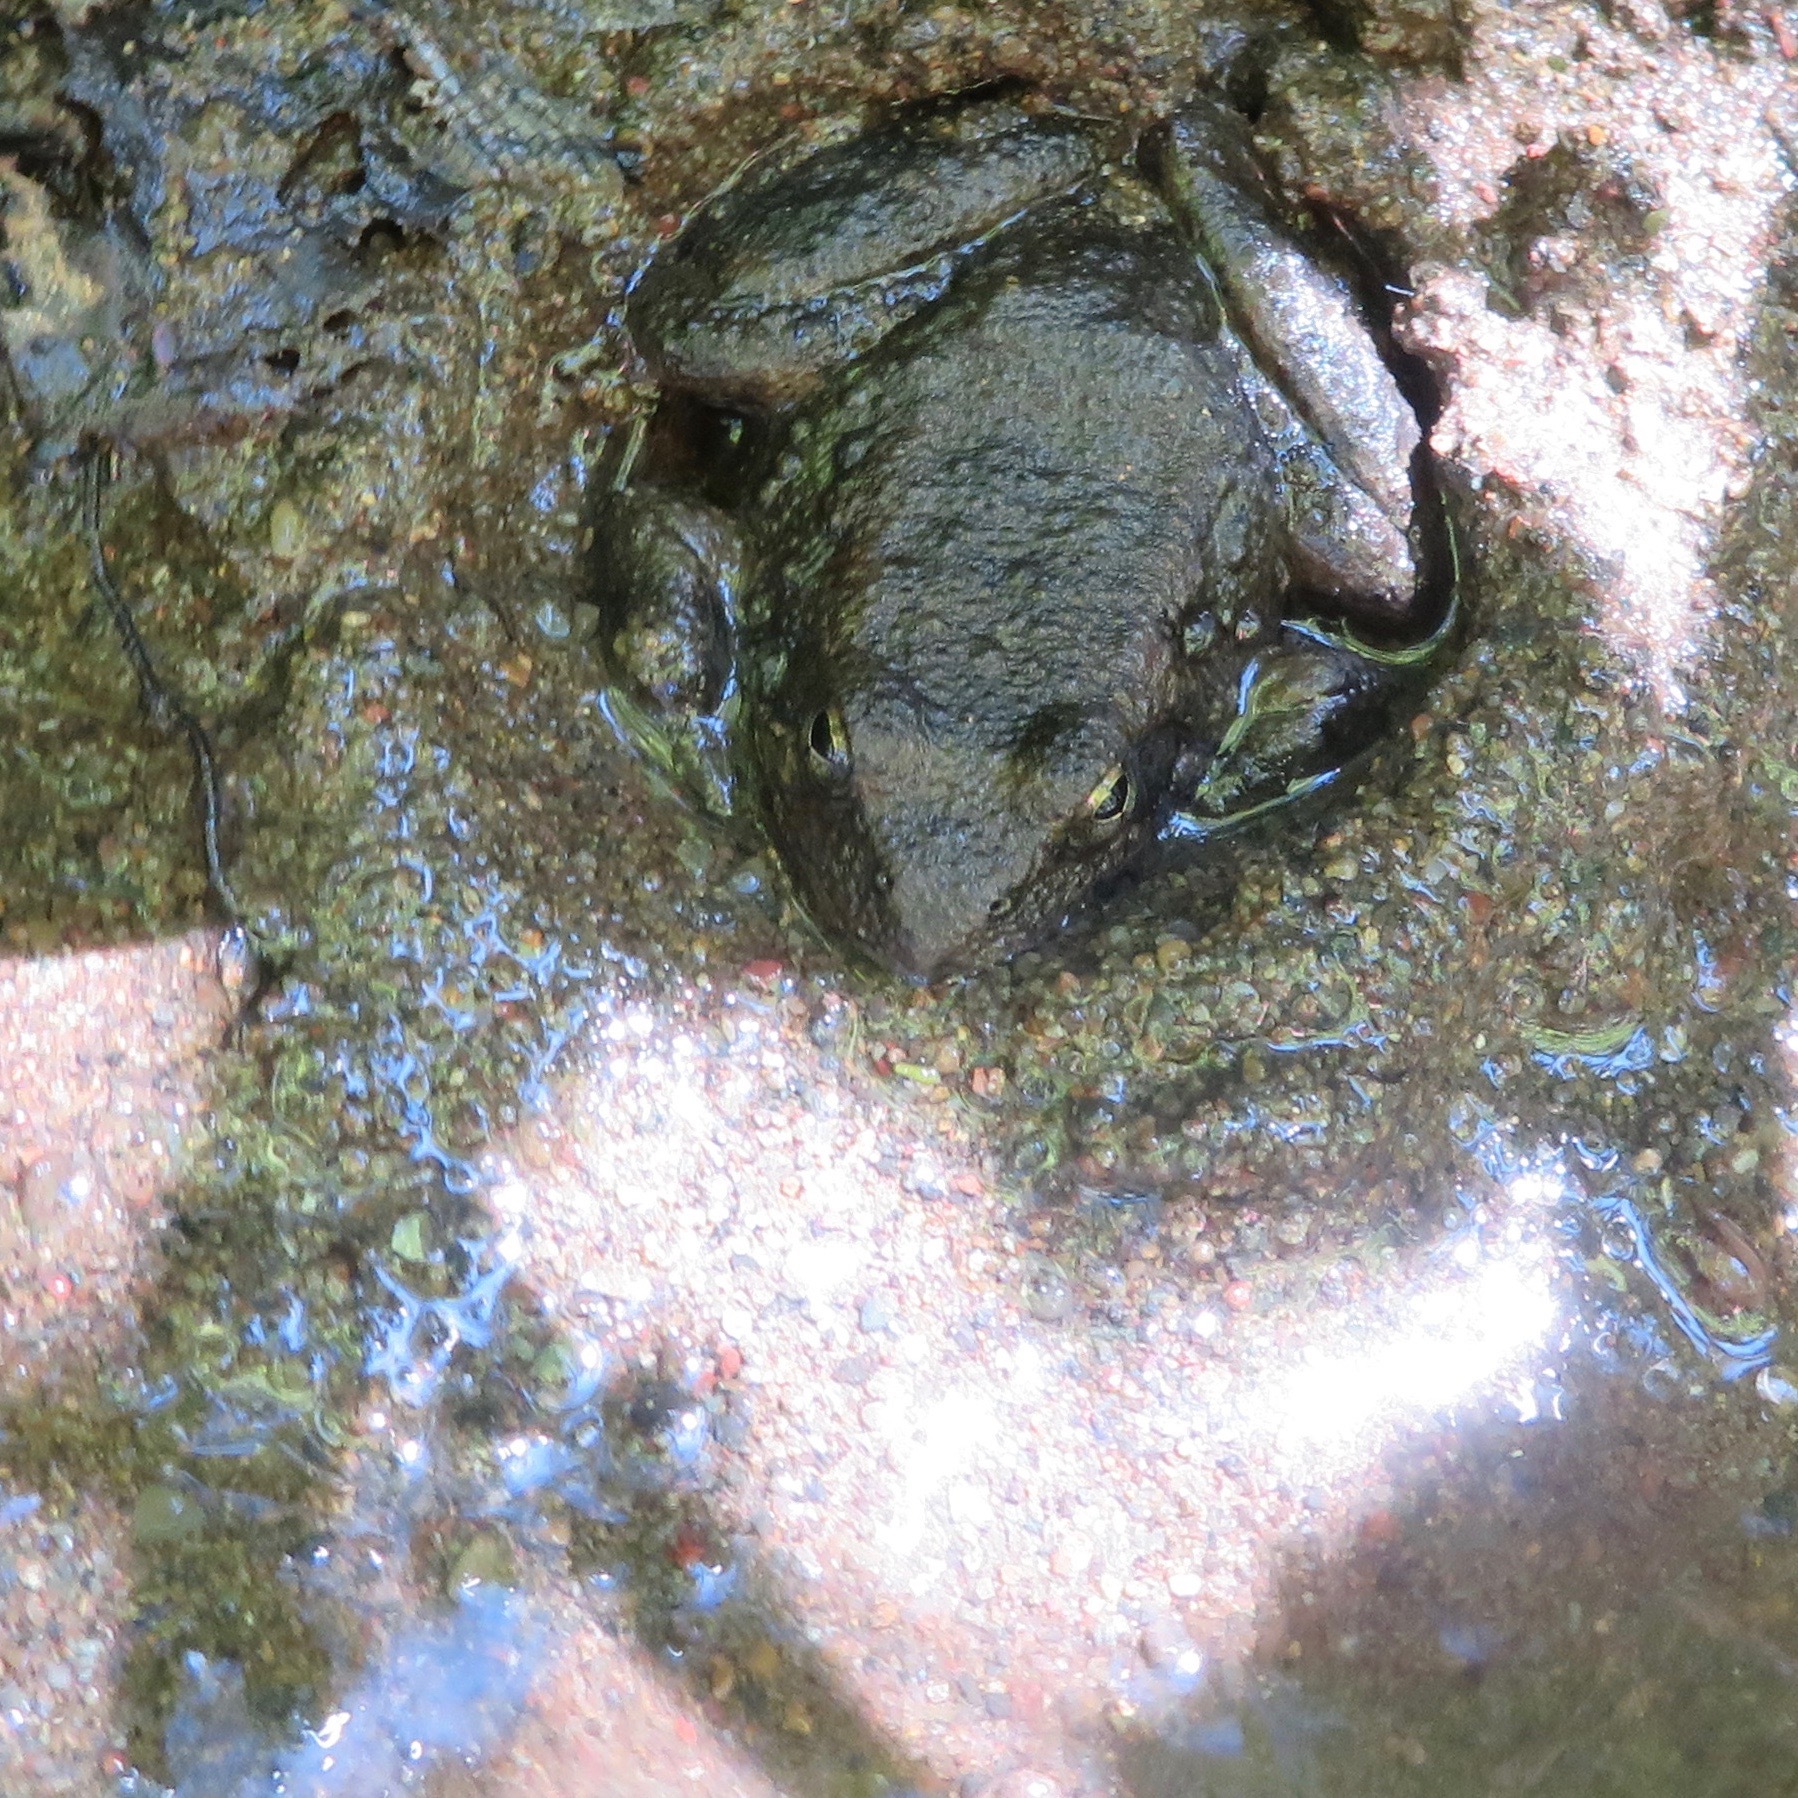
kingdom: Animalia
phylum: Chordata
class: Amphibia
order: Anura
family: Ranidae
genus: Rana
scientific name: Rana boylii
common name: Foothill yellow-legged frog
